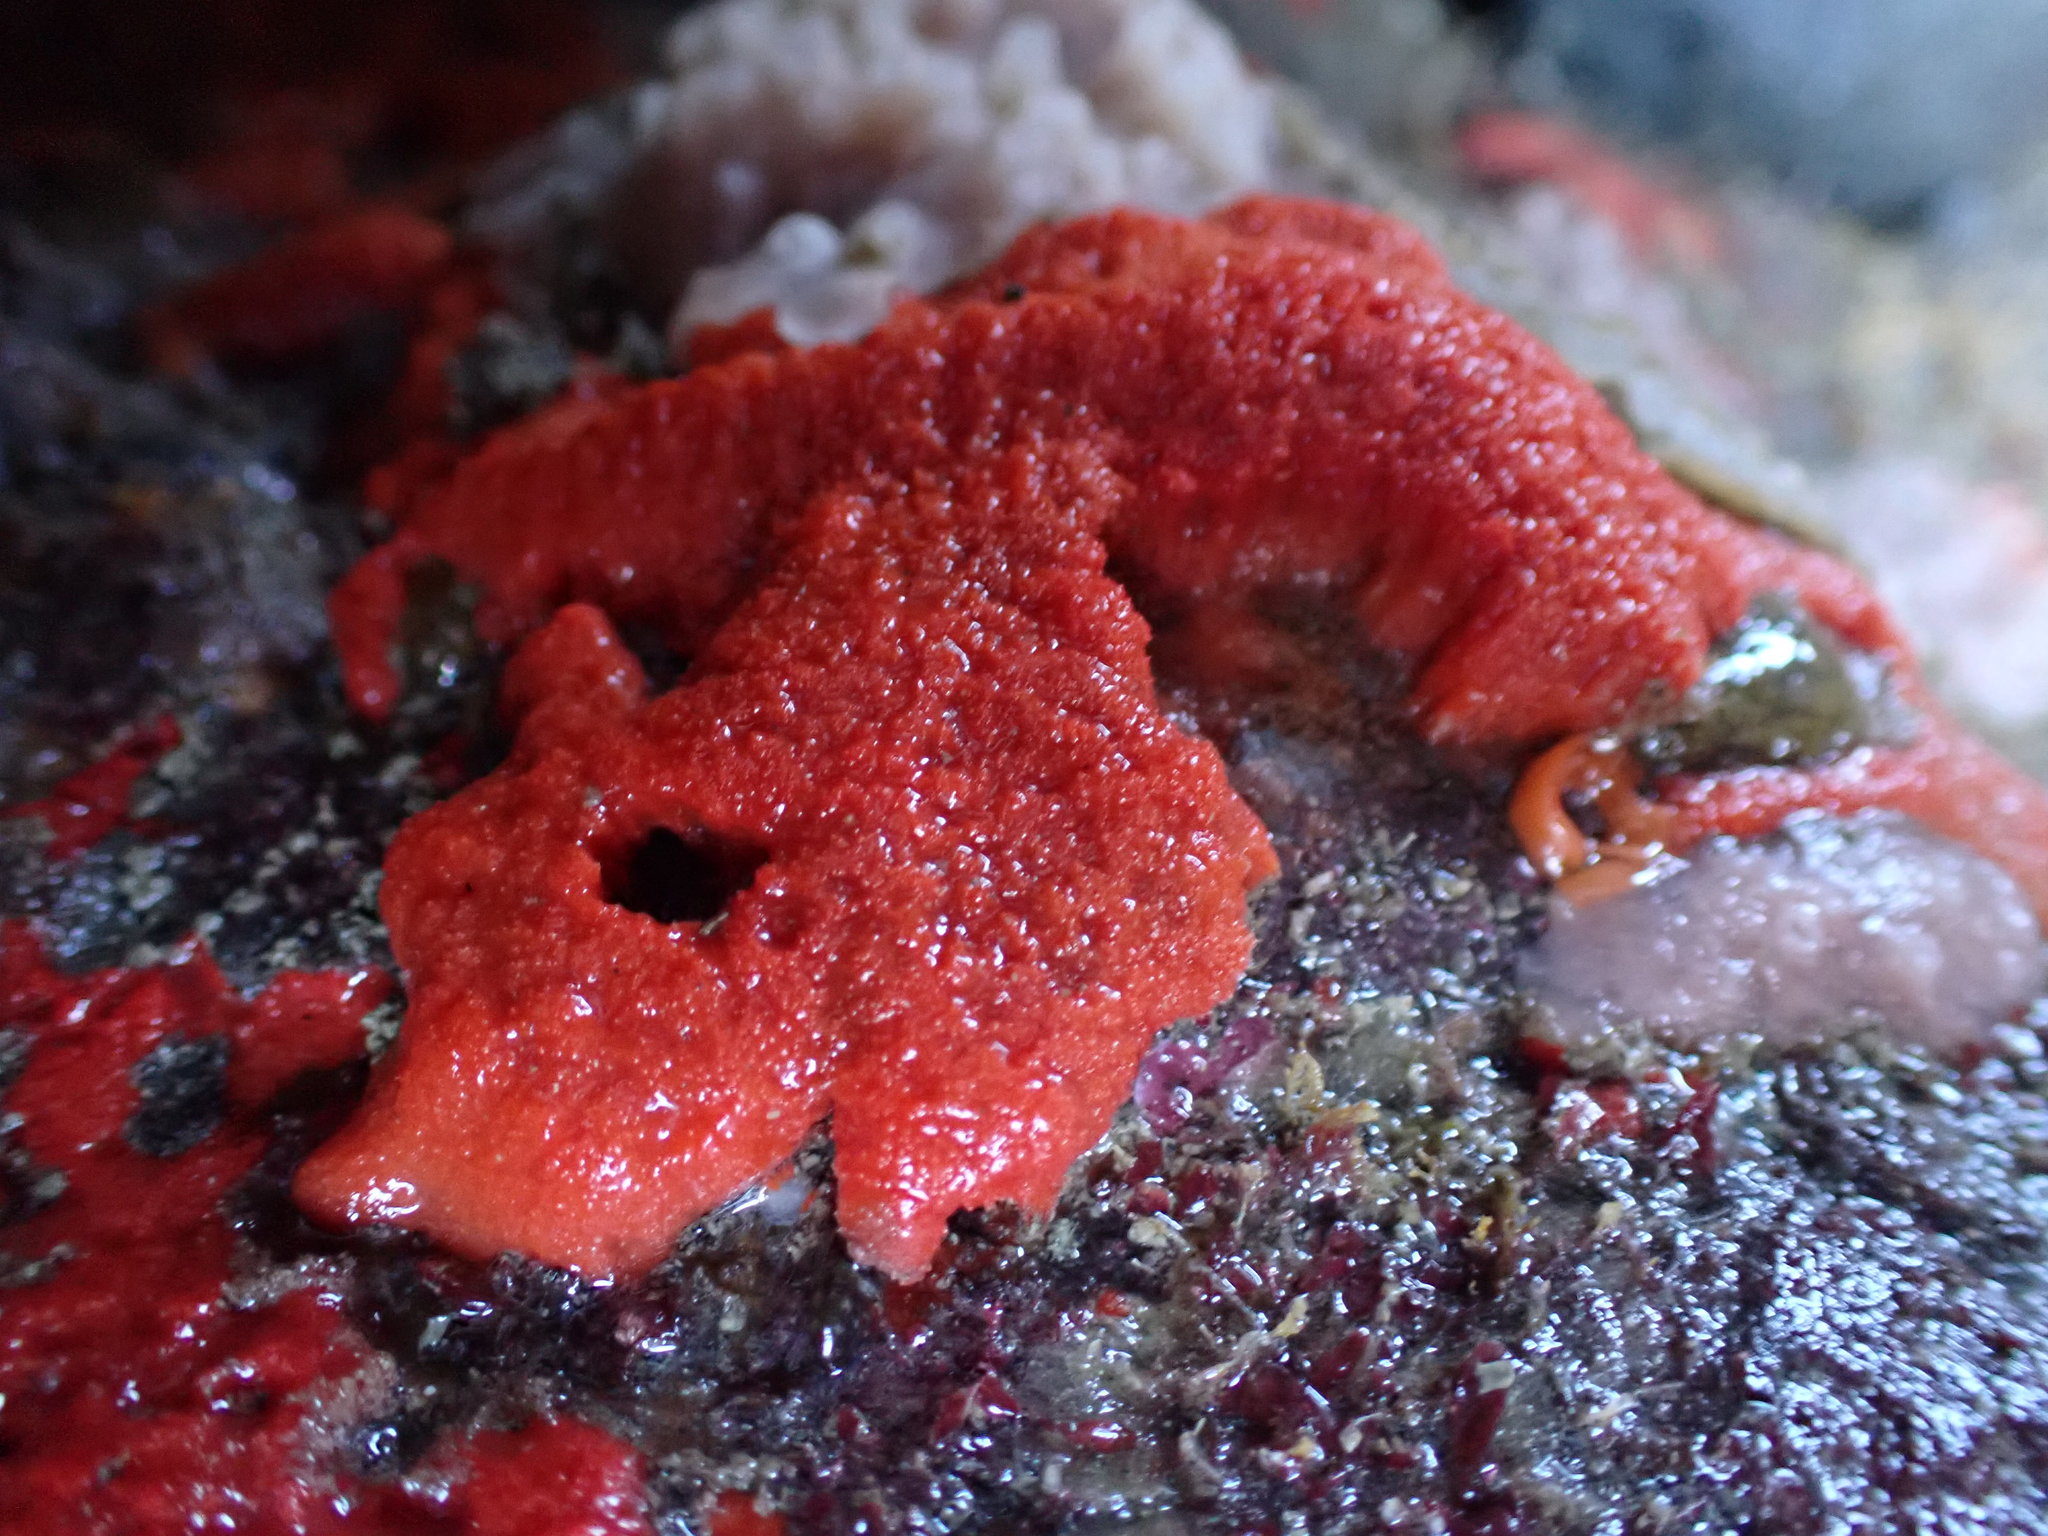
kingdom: Animalia
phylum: Porifera
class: Demospongiae
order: Poecilosclerida
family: Crellidae
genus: Crella
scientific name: Crella incrustans
